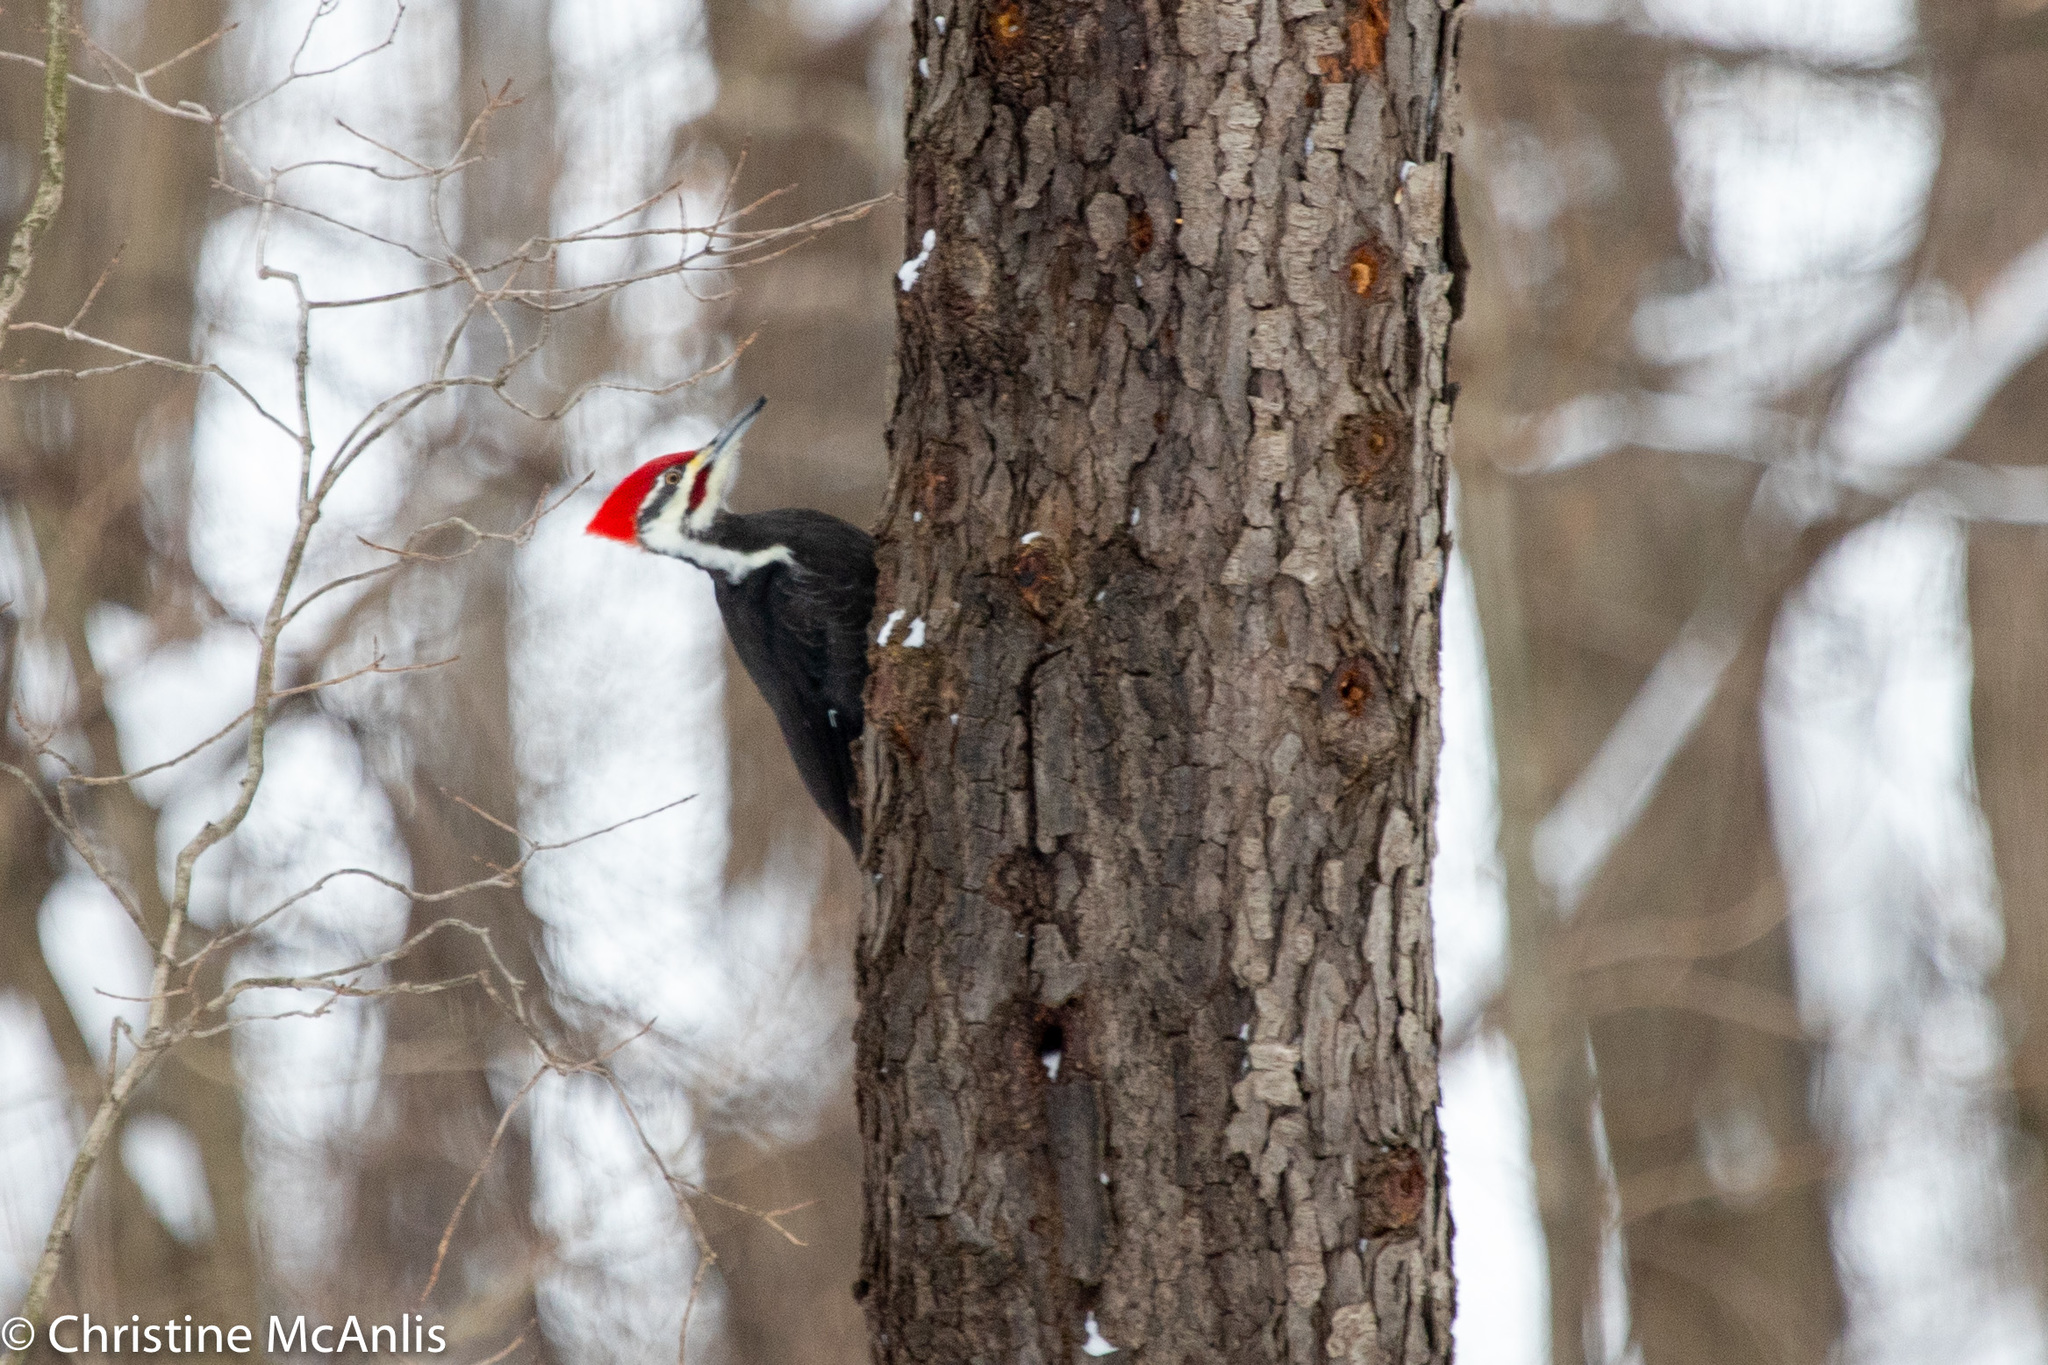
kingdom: Animalia
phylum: Chordata
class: Aves
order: Piciformes
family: Picidae
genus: Dryocopus
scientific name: Dryocopus pileatus
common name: Pileated woodpecker
